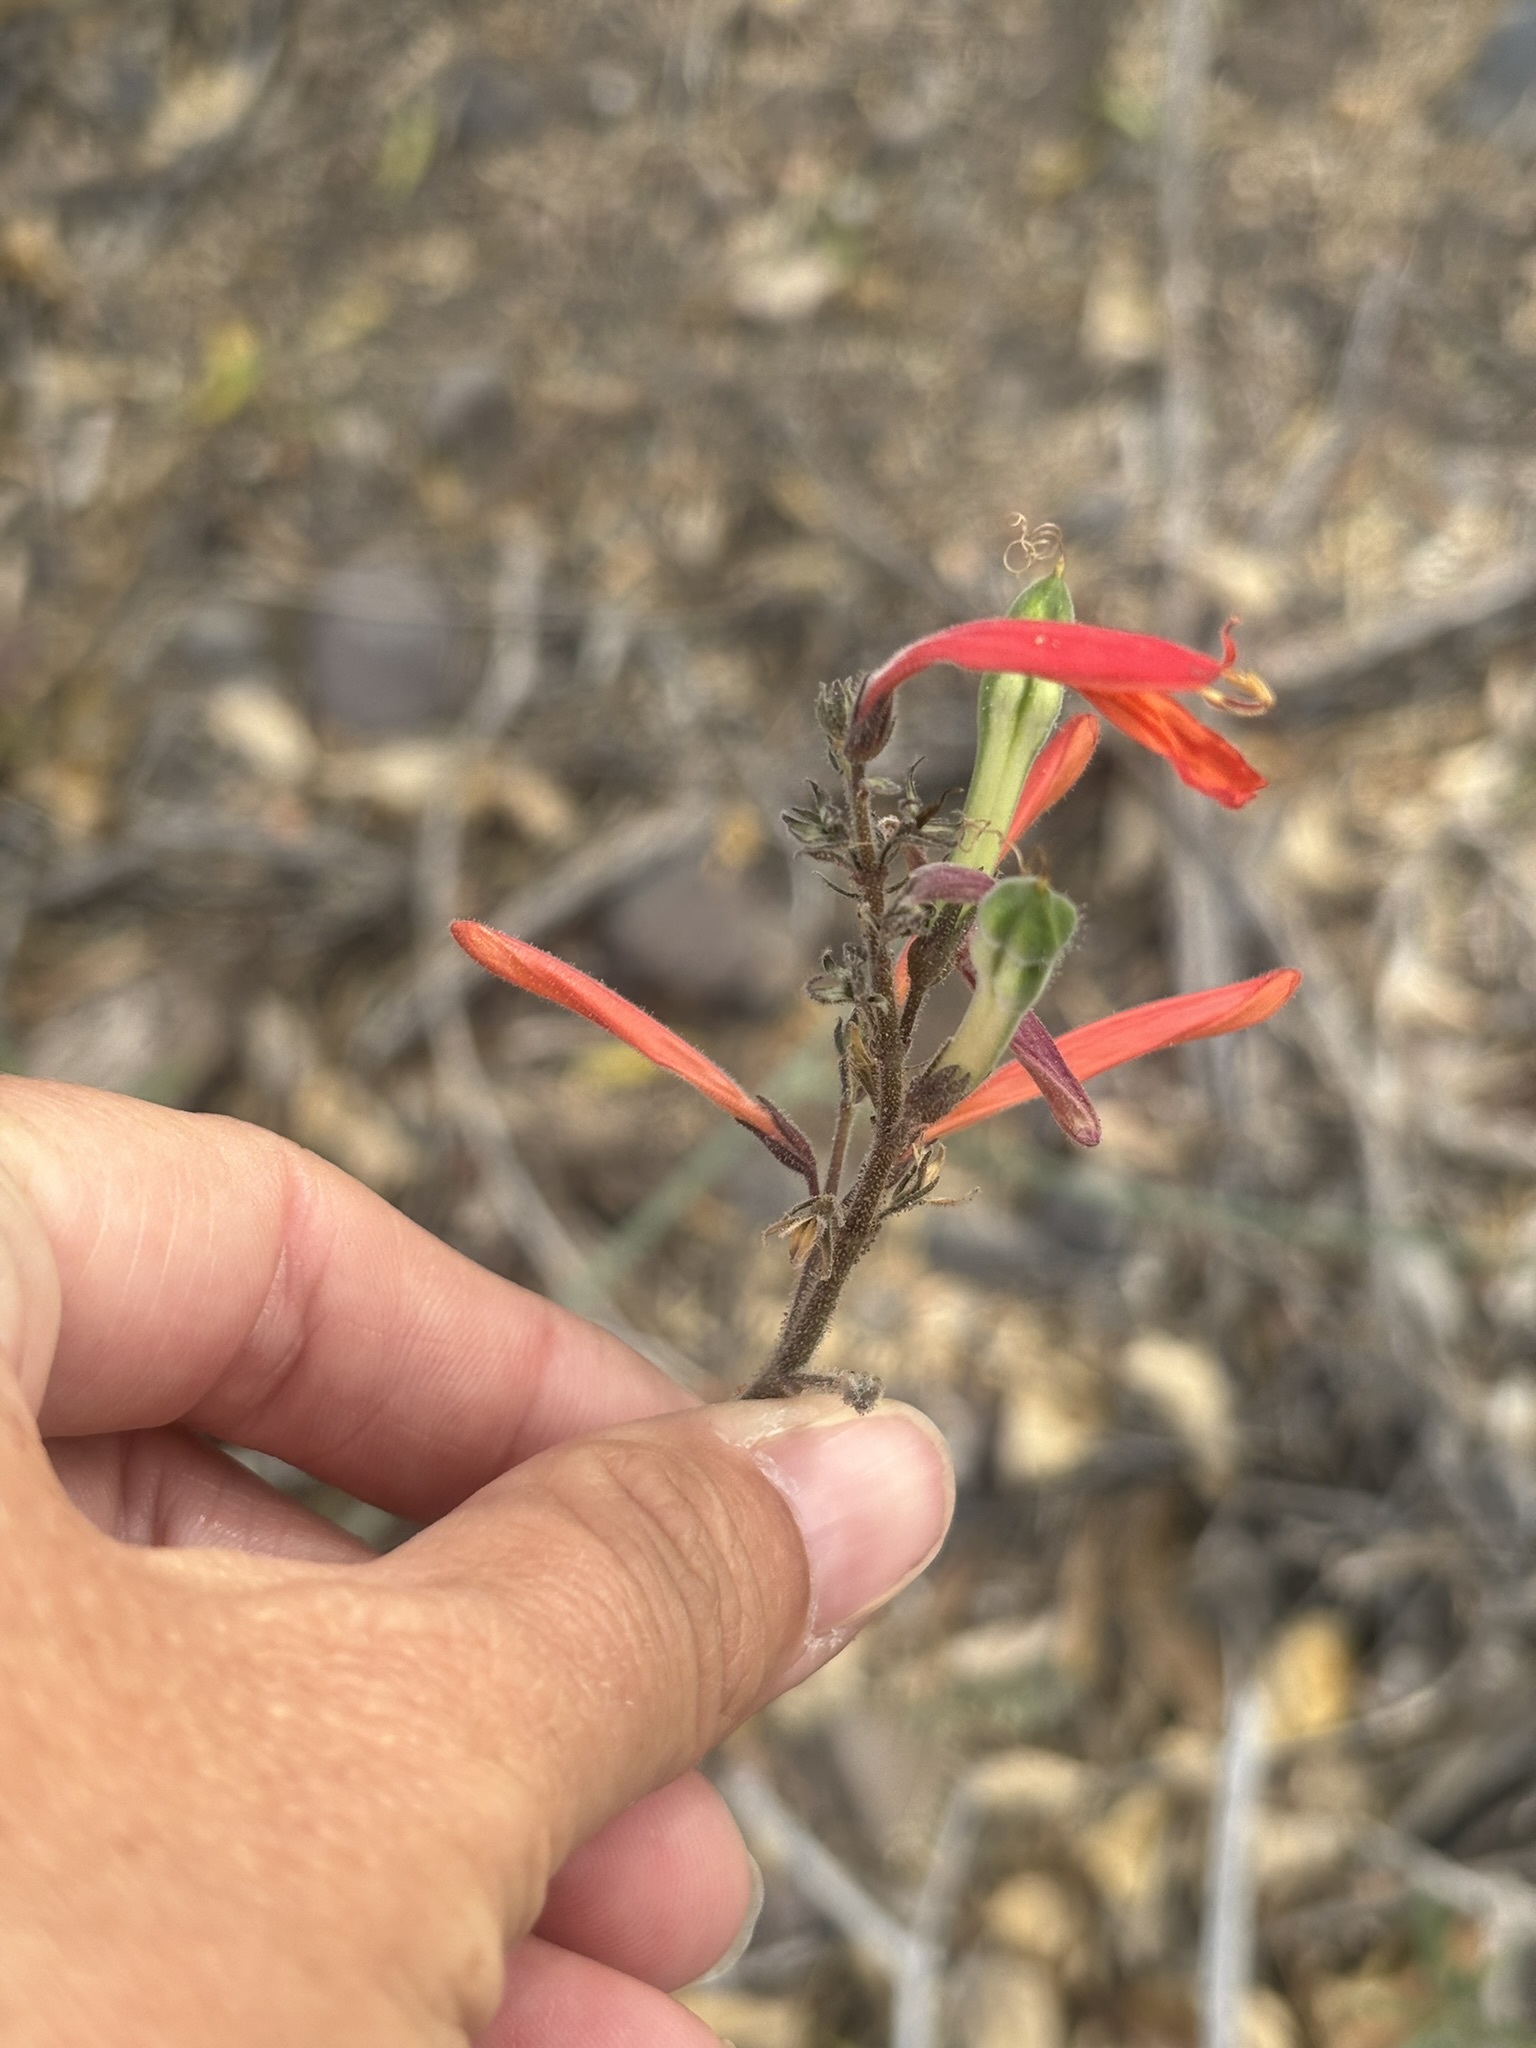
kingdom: Plantae
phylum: Tracheophyta
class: Magnoliopsida
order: Lamiales
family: Acanthaceae
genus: Justicia
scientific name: Justicia californica
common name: Chuparosa-honeysuckle
